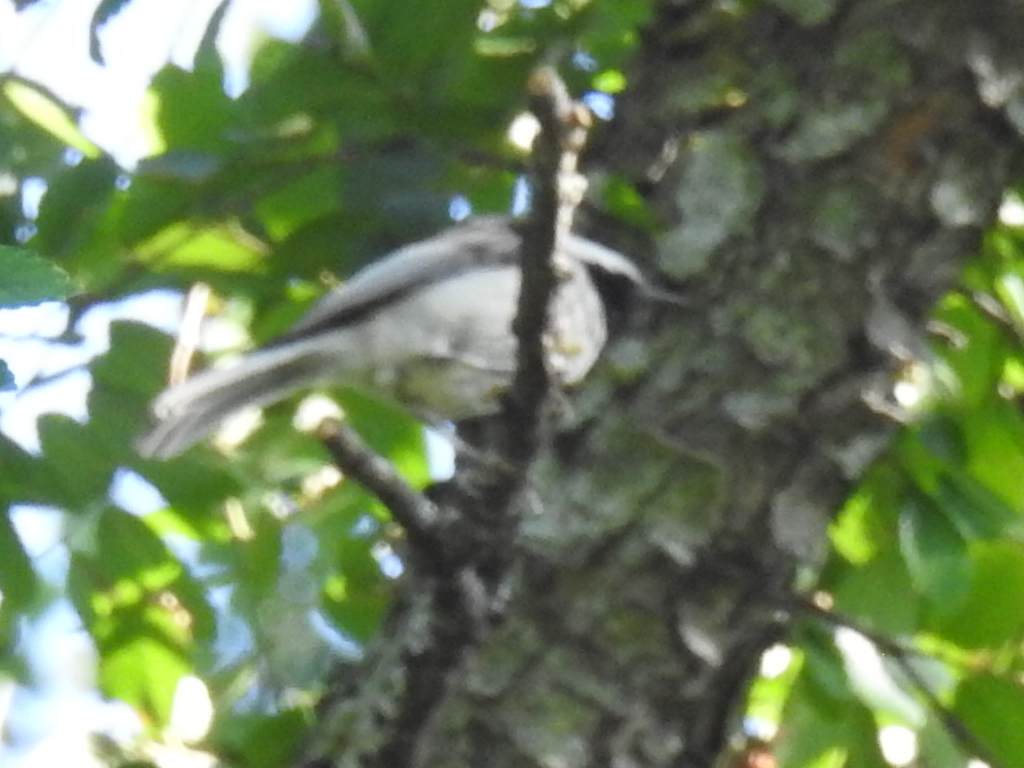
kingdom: Animalia
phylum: Chordata
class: Aves
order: Passeriformes
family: Paridae
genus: Poecile
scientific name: Poecile carolinensis
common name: Carolina chickadee
